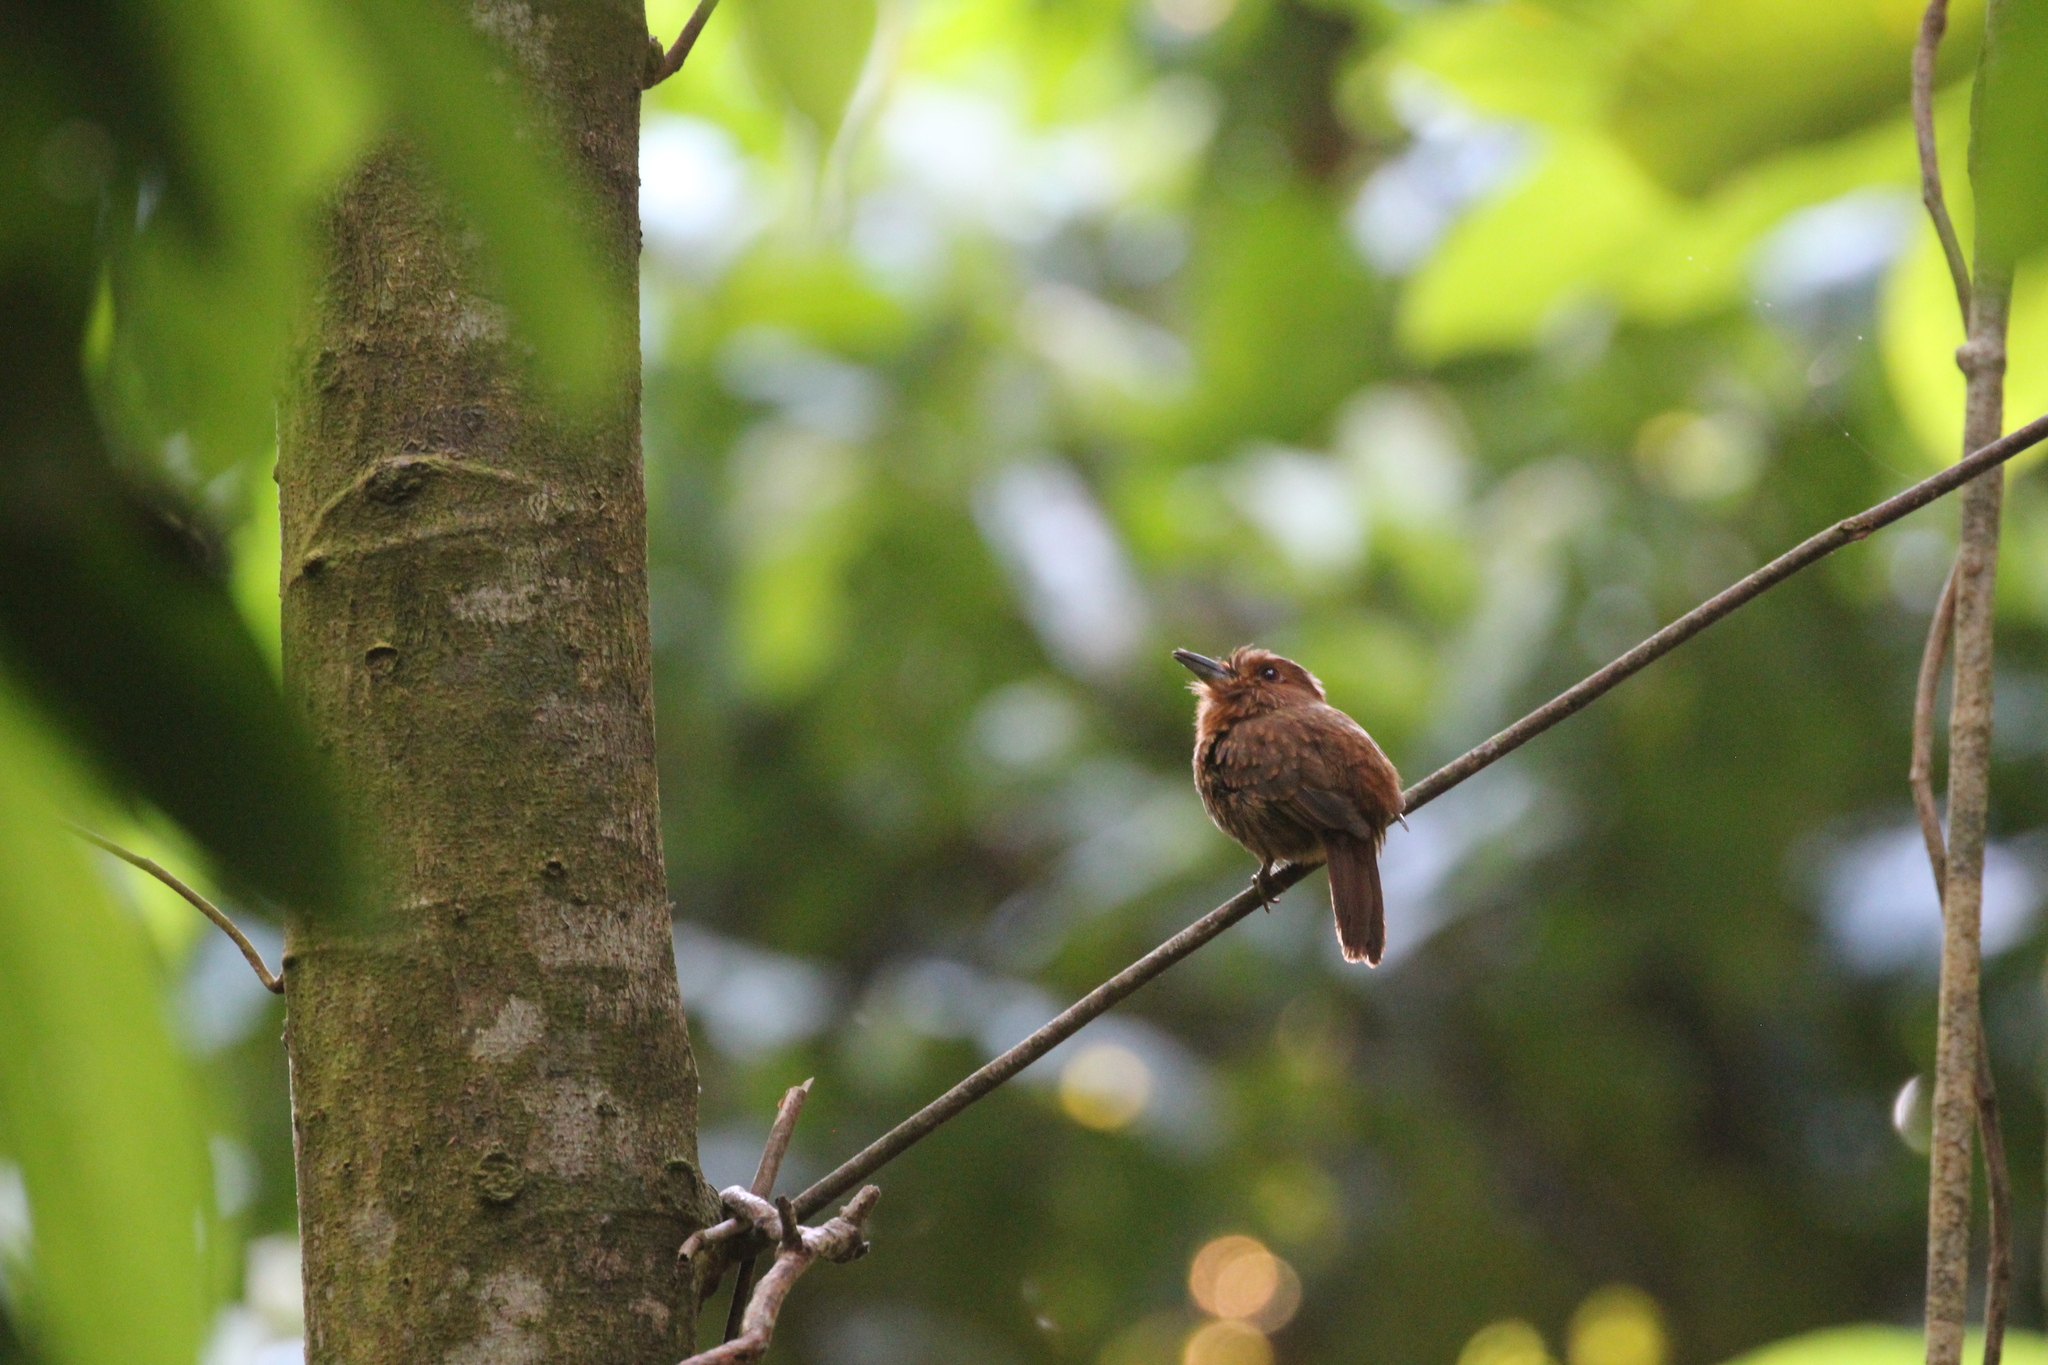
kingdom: Animalia
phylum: Chordata
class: Aves
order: Piciformes
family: Bucconidae
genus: Malacoptila
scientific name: Malacoptila panamensis
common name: White-whiskered puffbird
